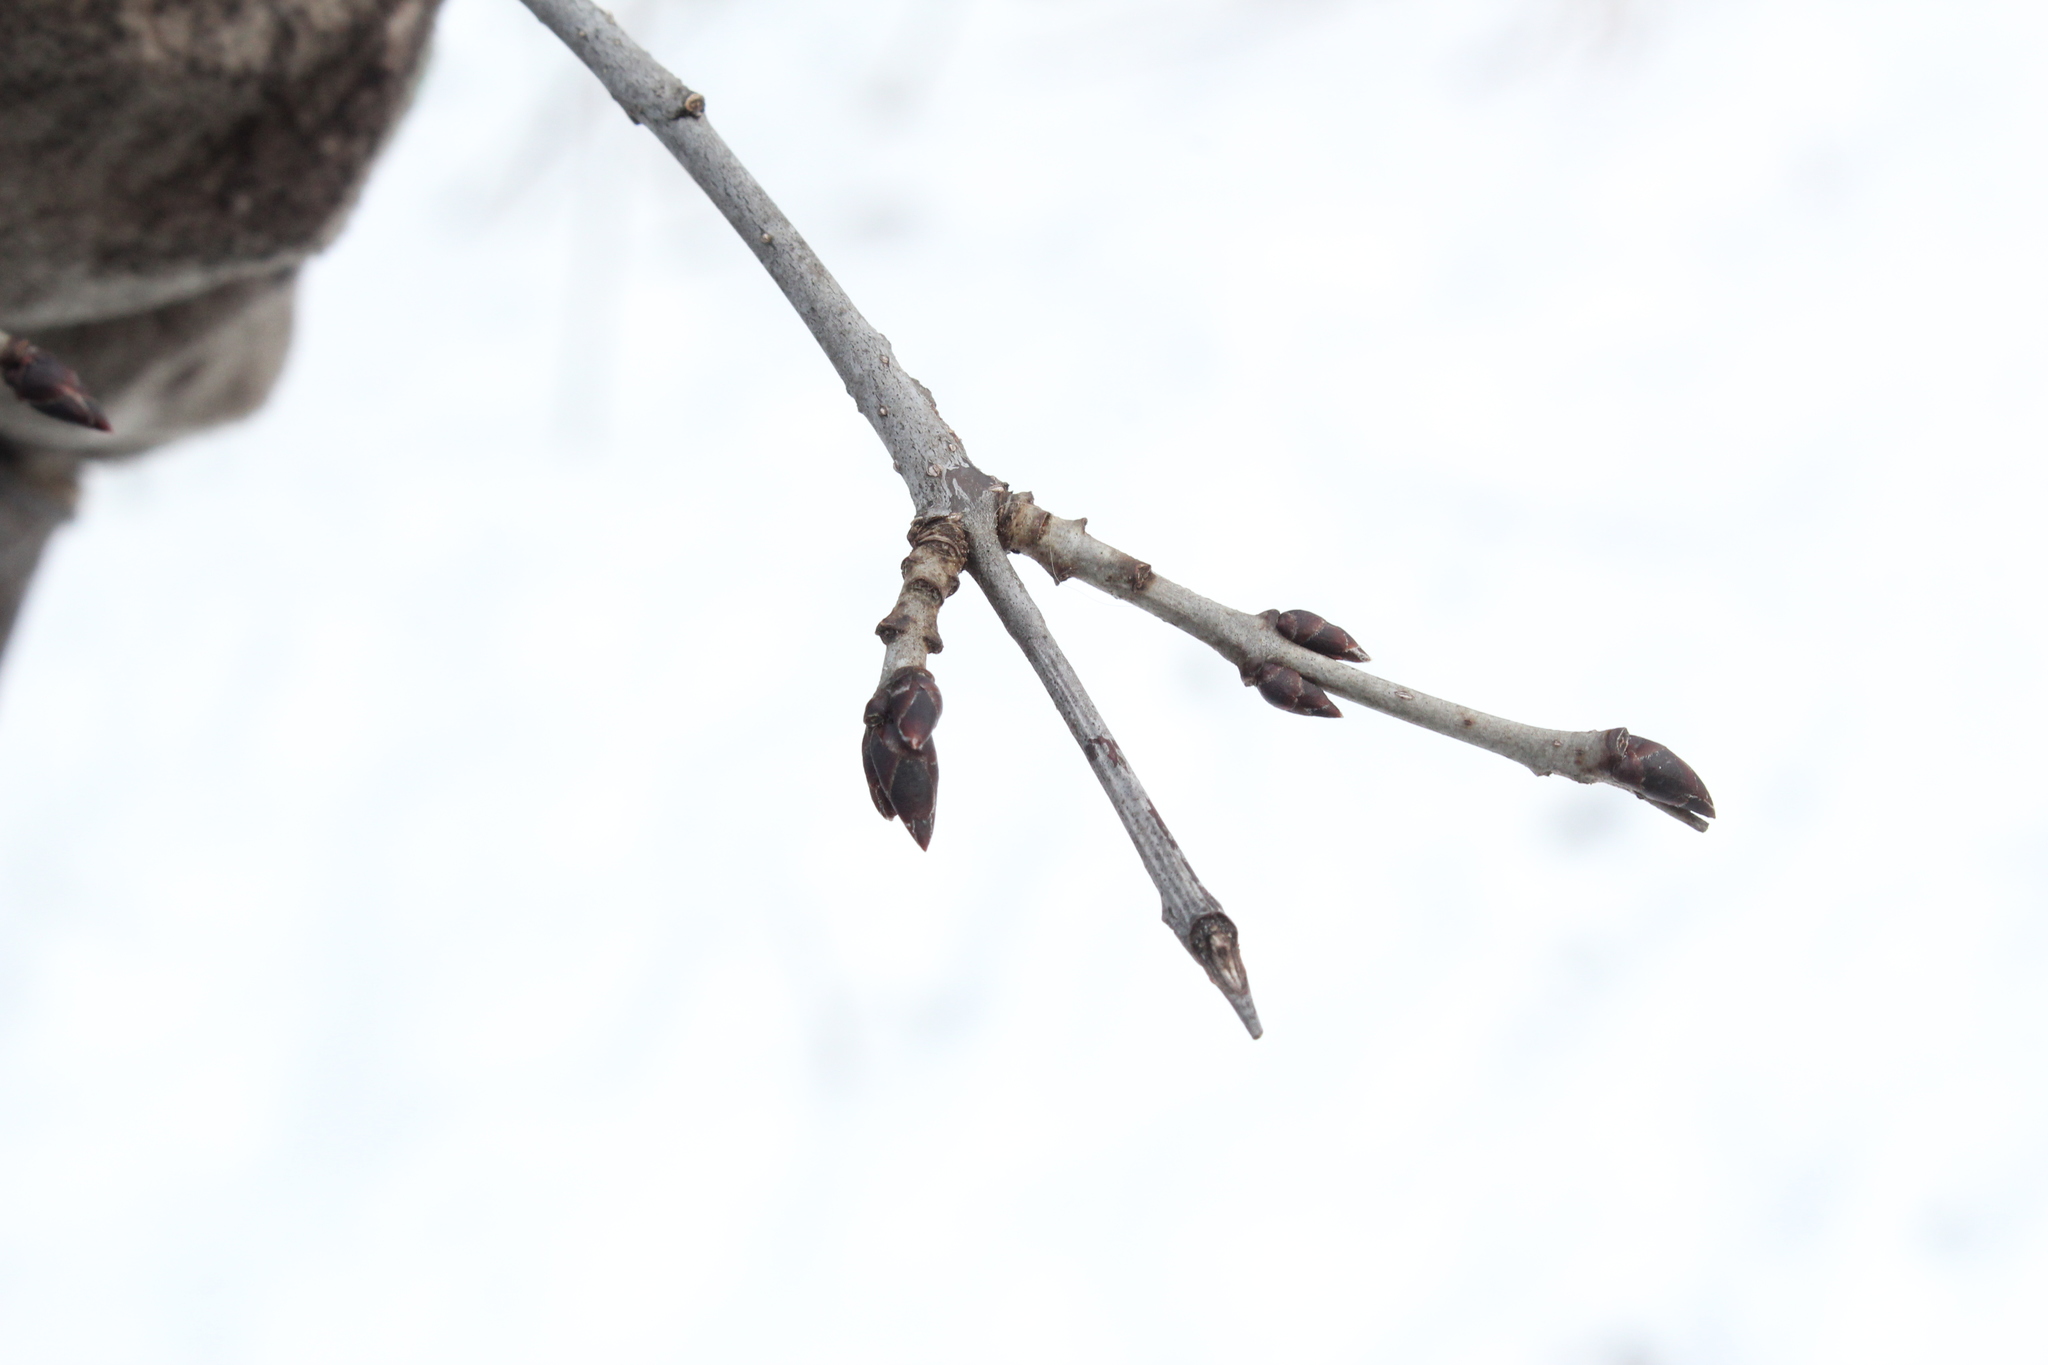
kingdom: Plantae
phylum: Tracheophyta
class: Magnoliopsida
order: Rosales
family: Rhamnaceae
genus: Rhamnus
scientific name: Rhamnus cathartica
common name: Common buckthorn
